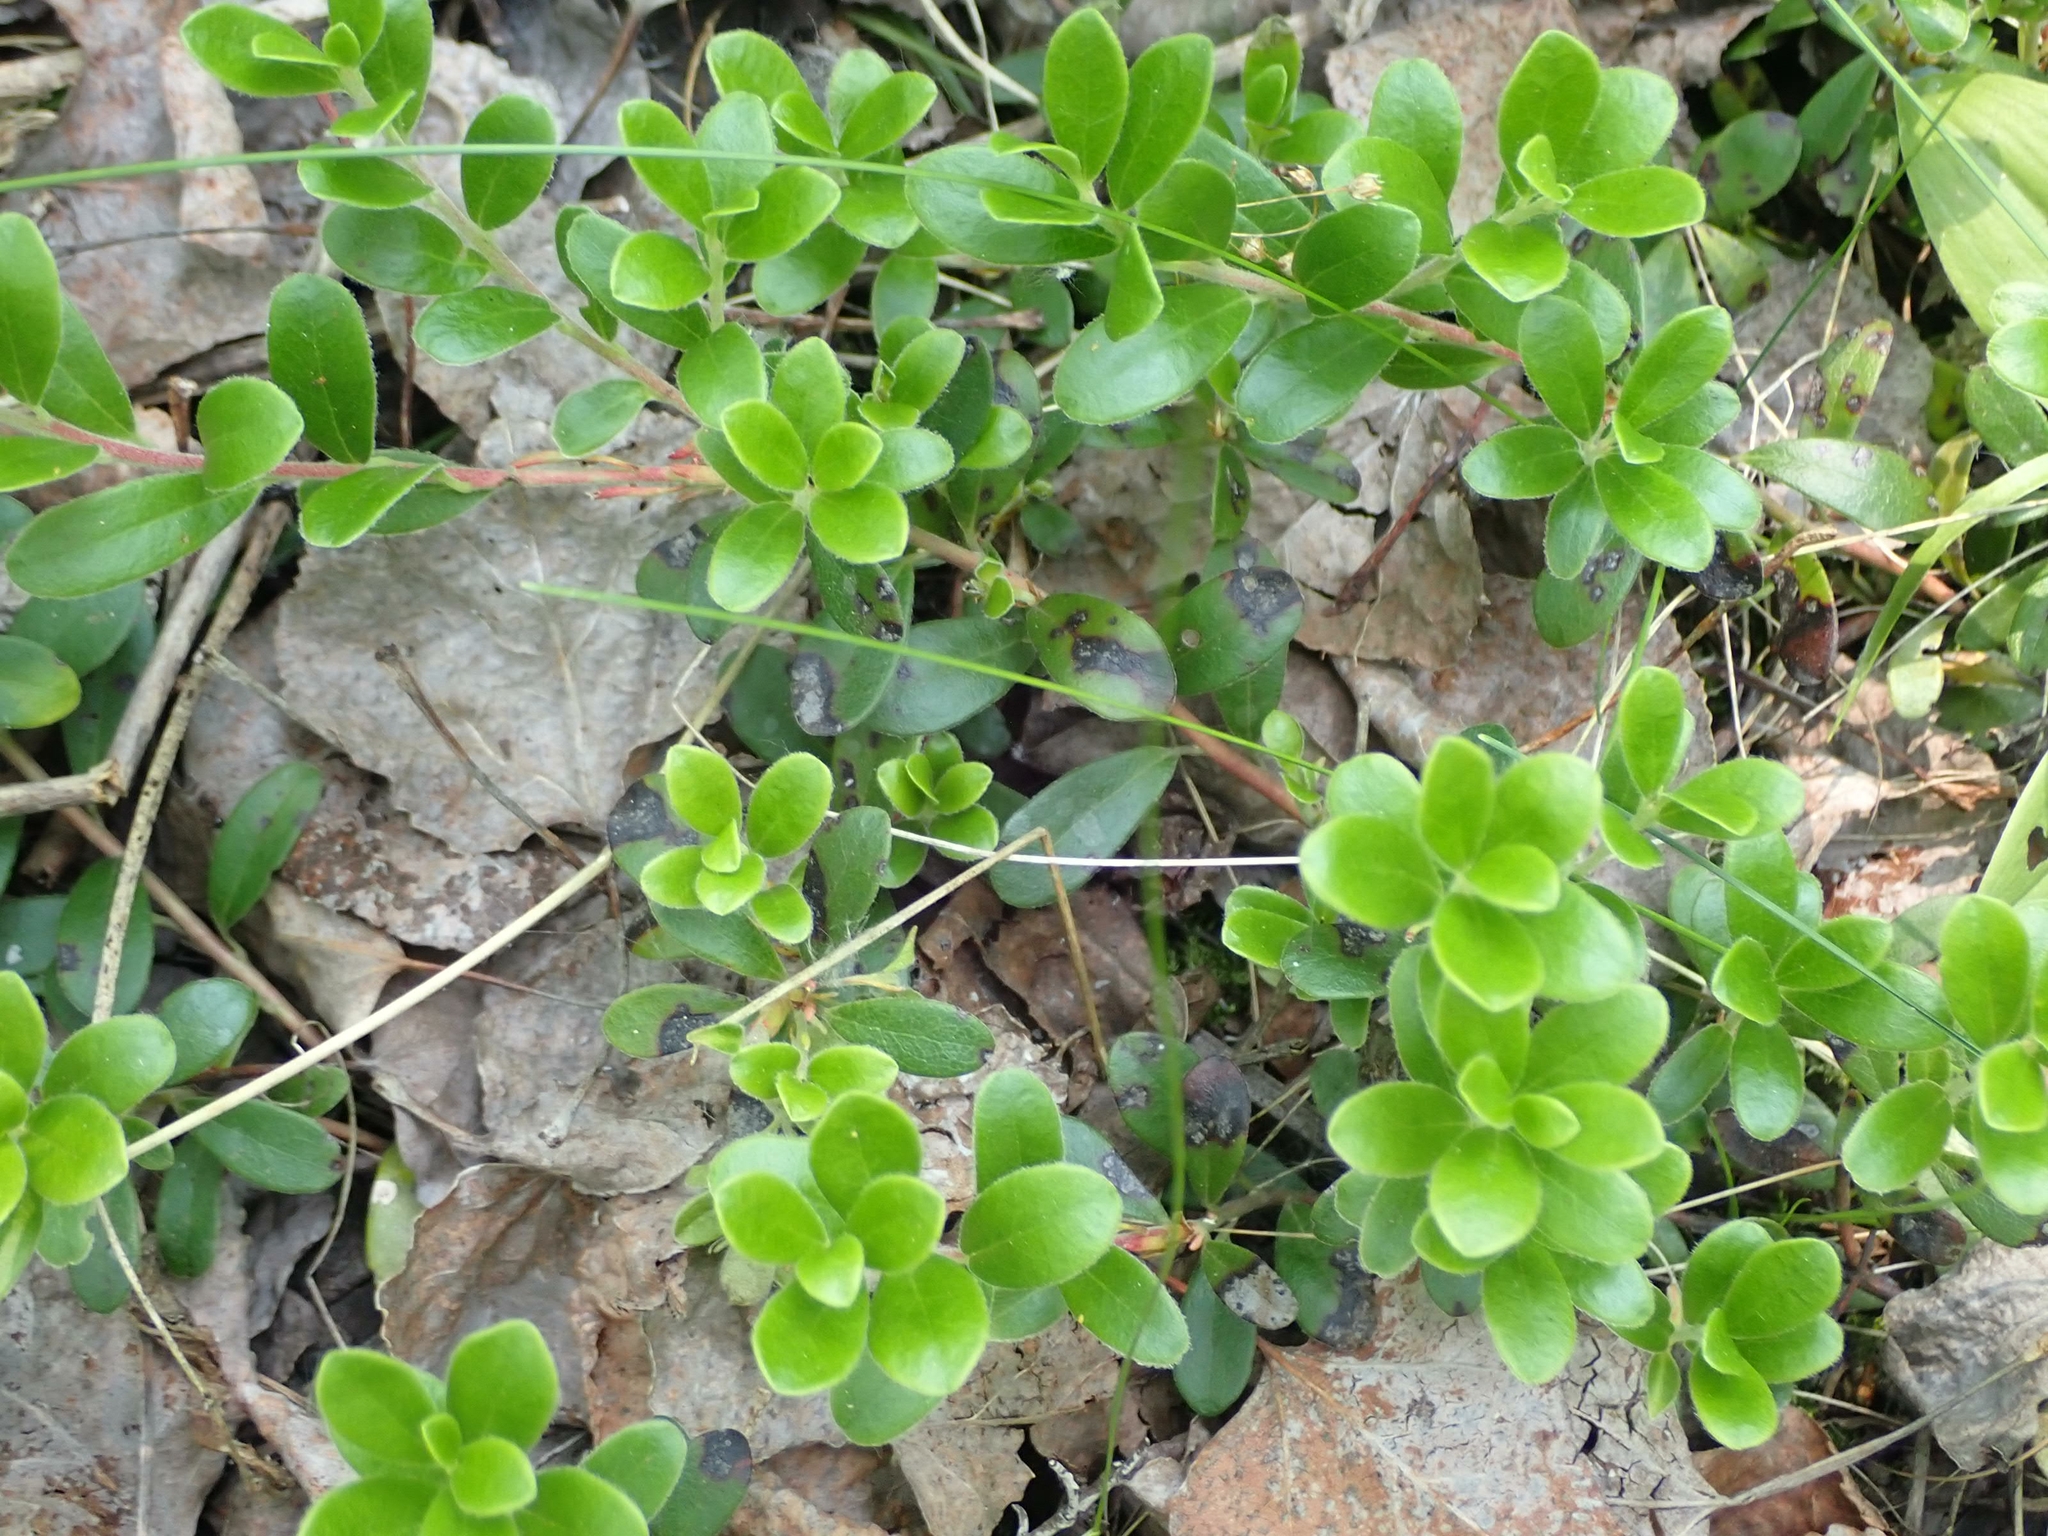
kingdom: Plantae
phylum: Tracheophyta
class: Magnoliopsida
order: Ericales
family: Ericaceae
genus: Arctostaphylos
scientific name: Arctostaphylos uva-ursi
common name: Bearberry
